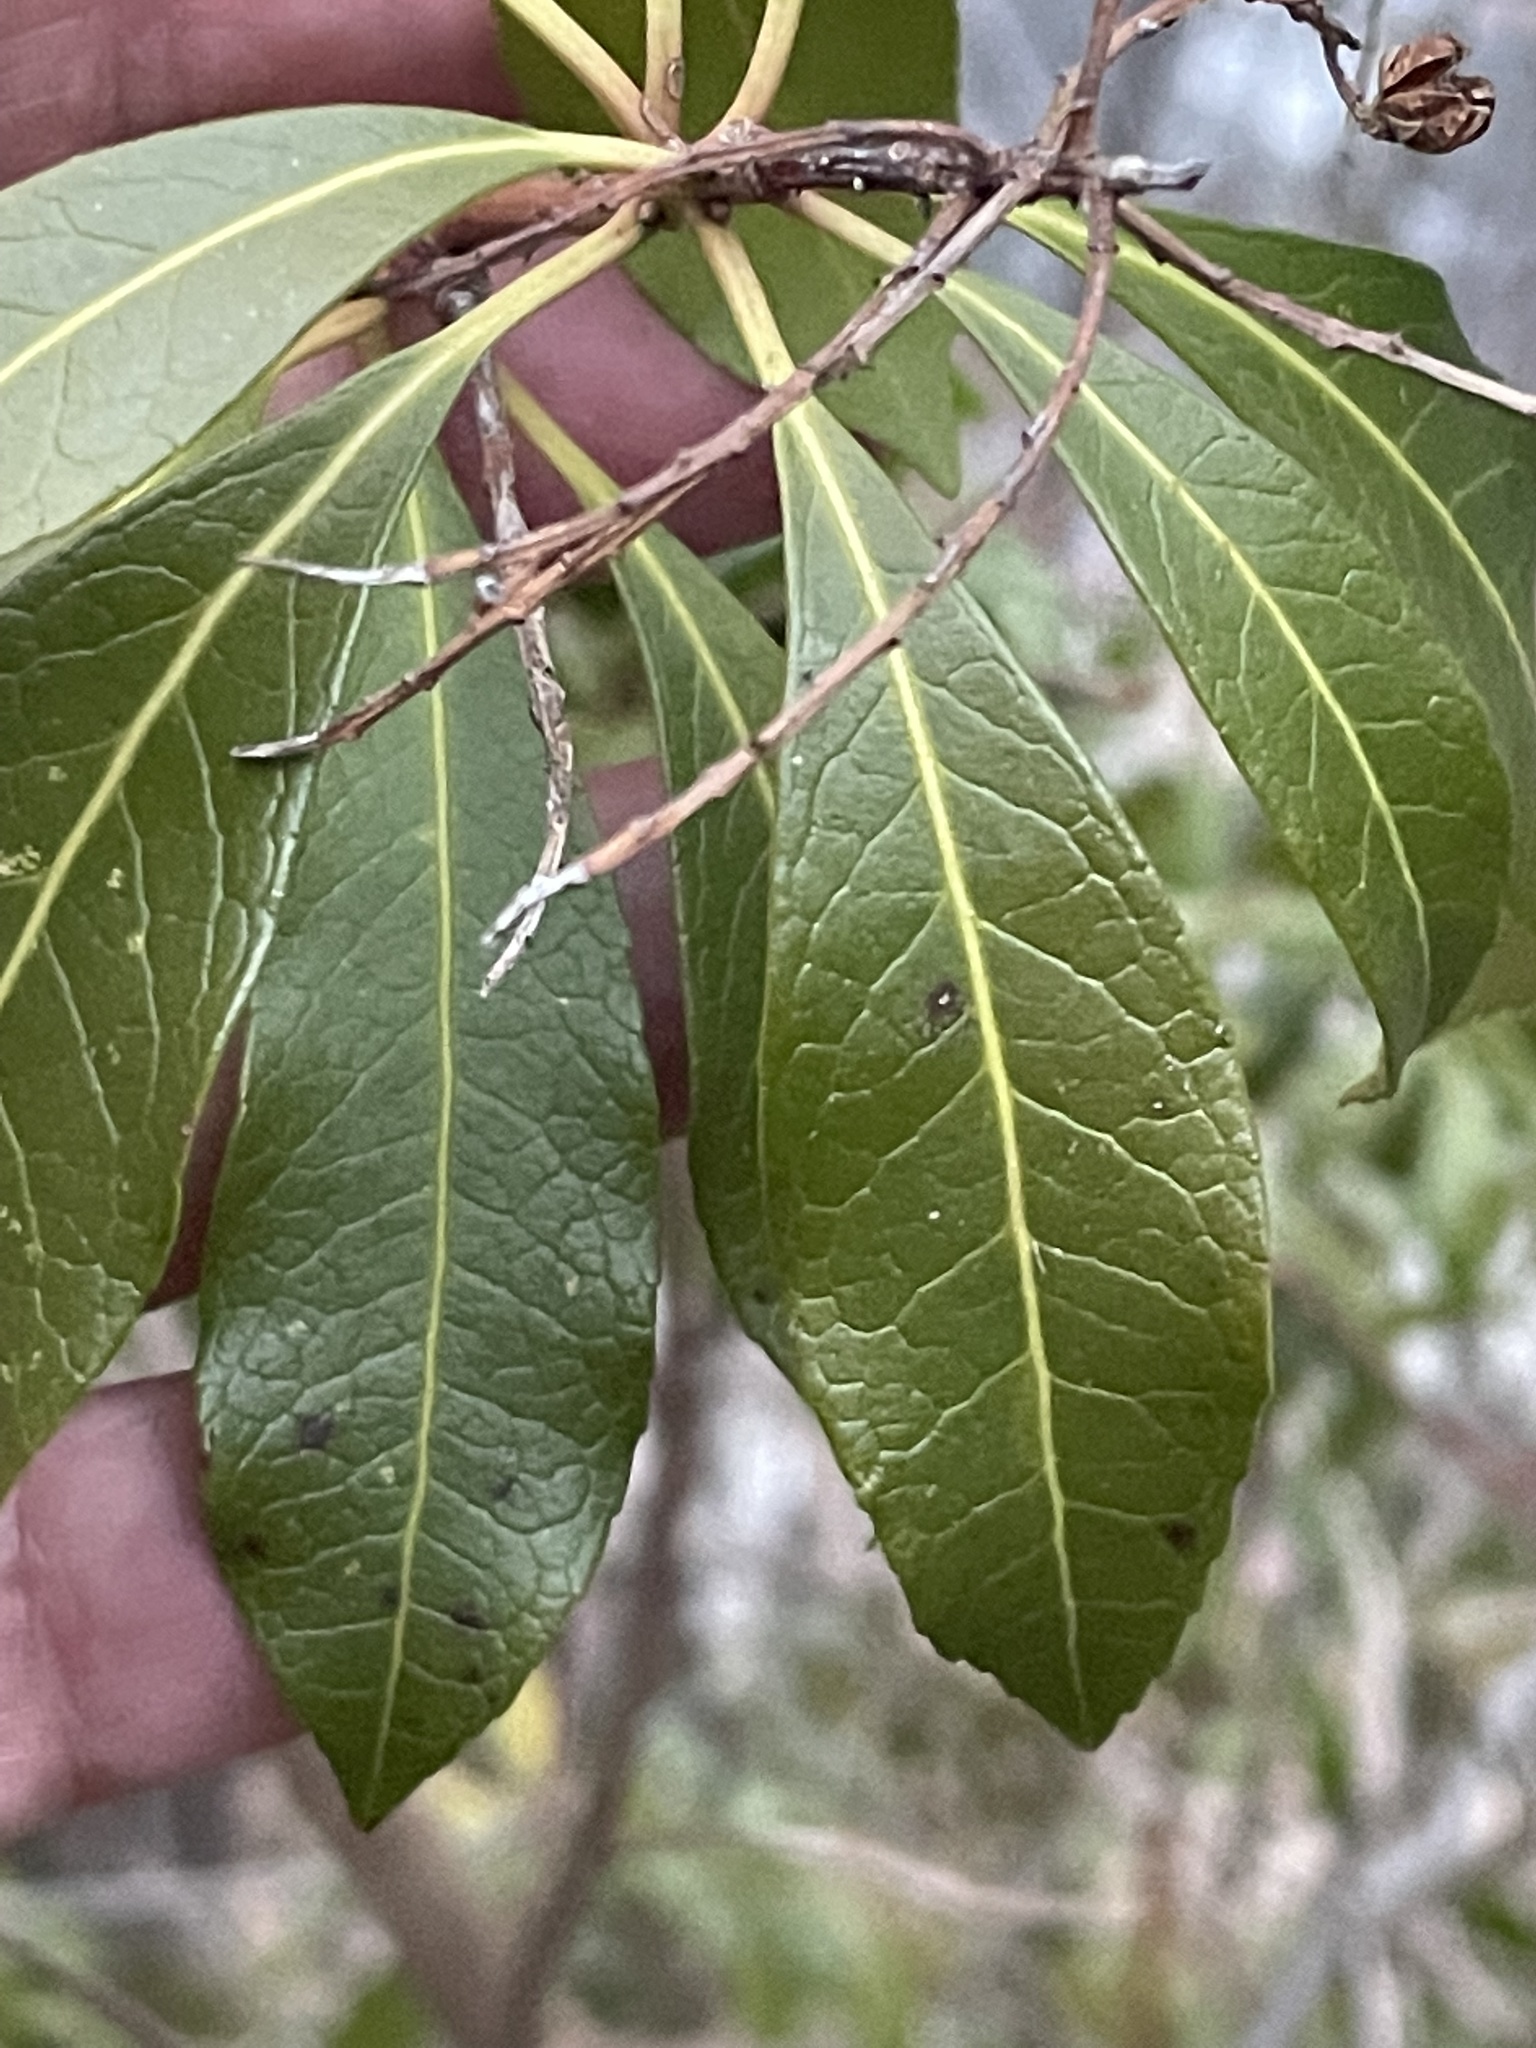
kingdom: Plantae
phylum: Tracheophyta
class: Magnoliopsida
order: Ericales
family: Ericaceae
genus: Pieris
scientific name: Pieris japonica
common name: Japanese pieris
